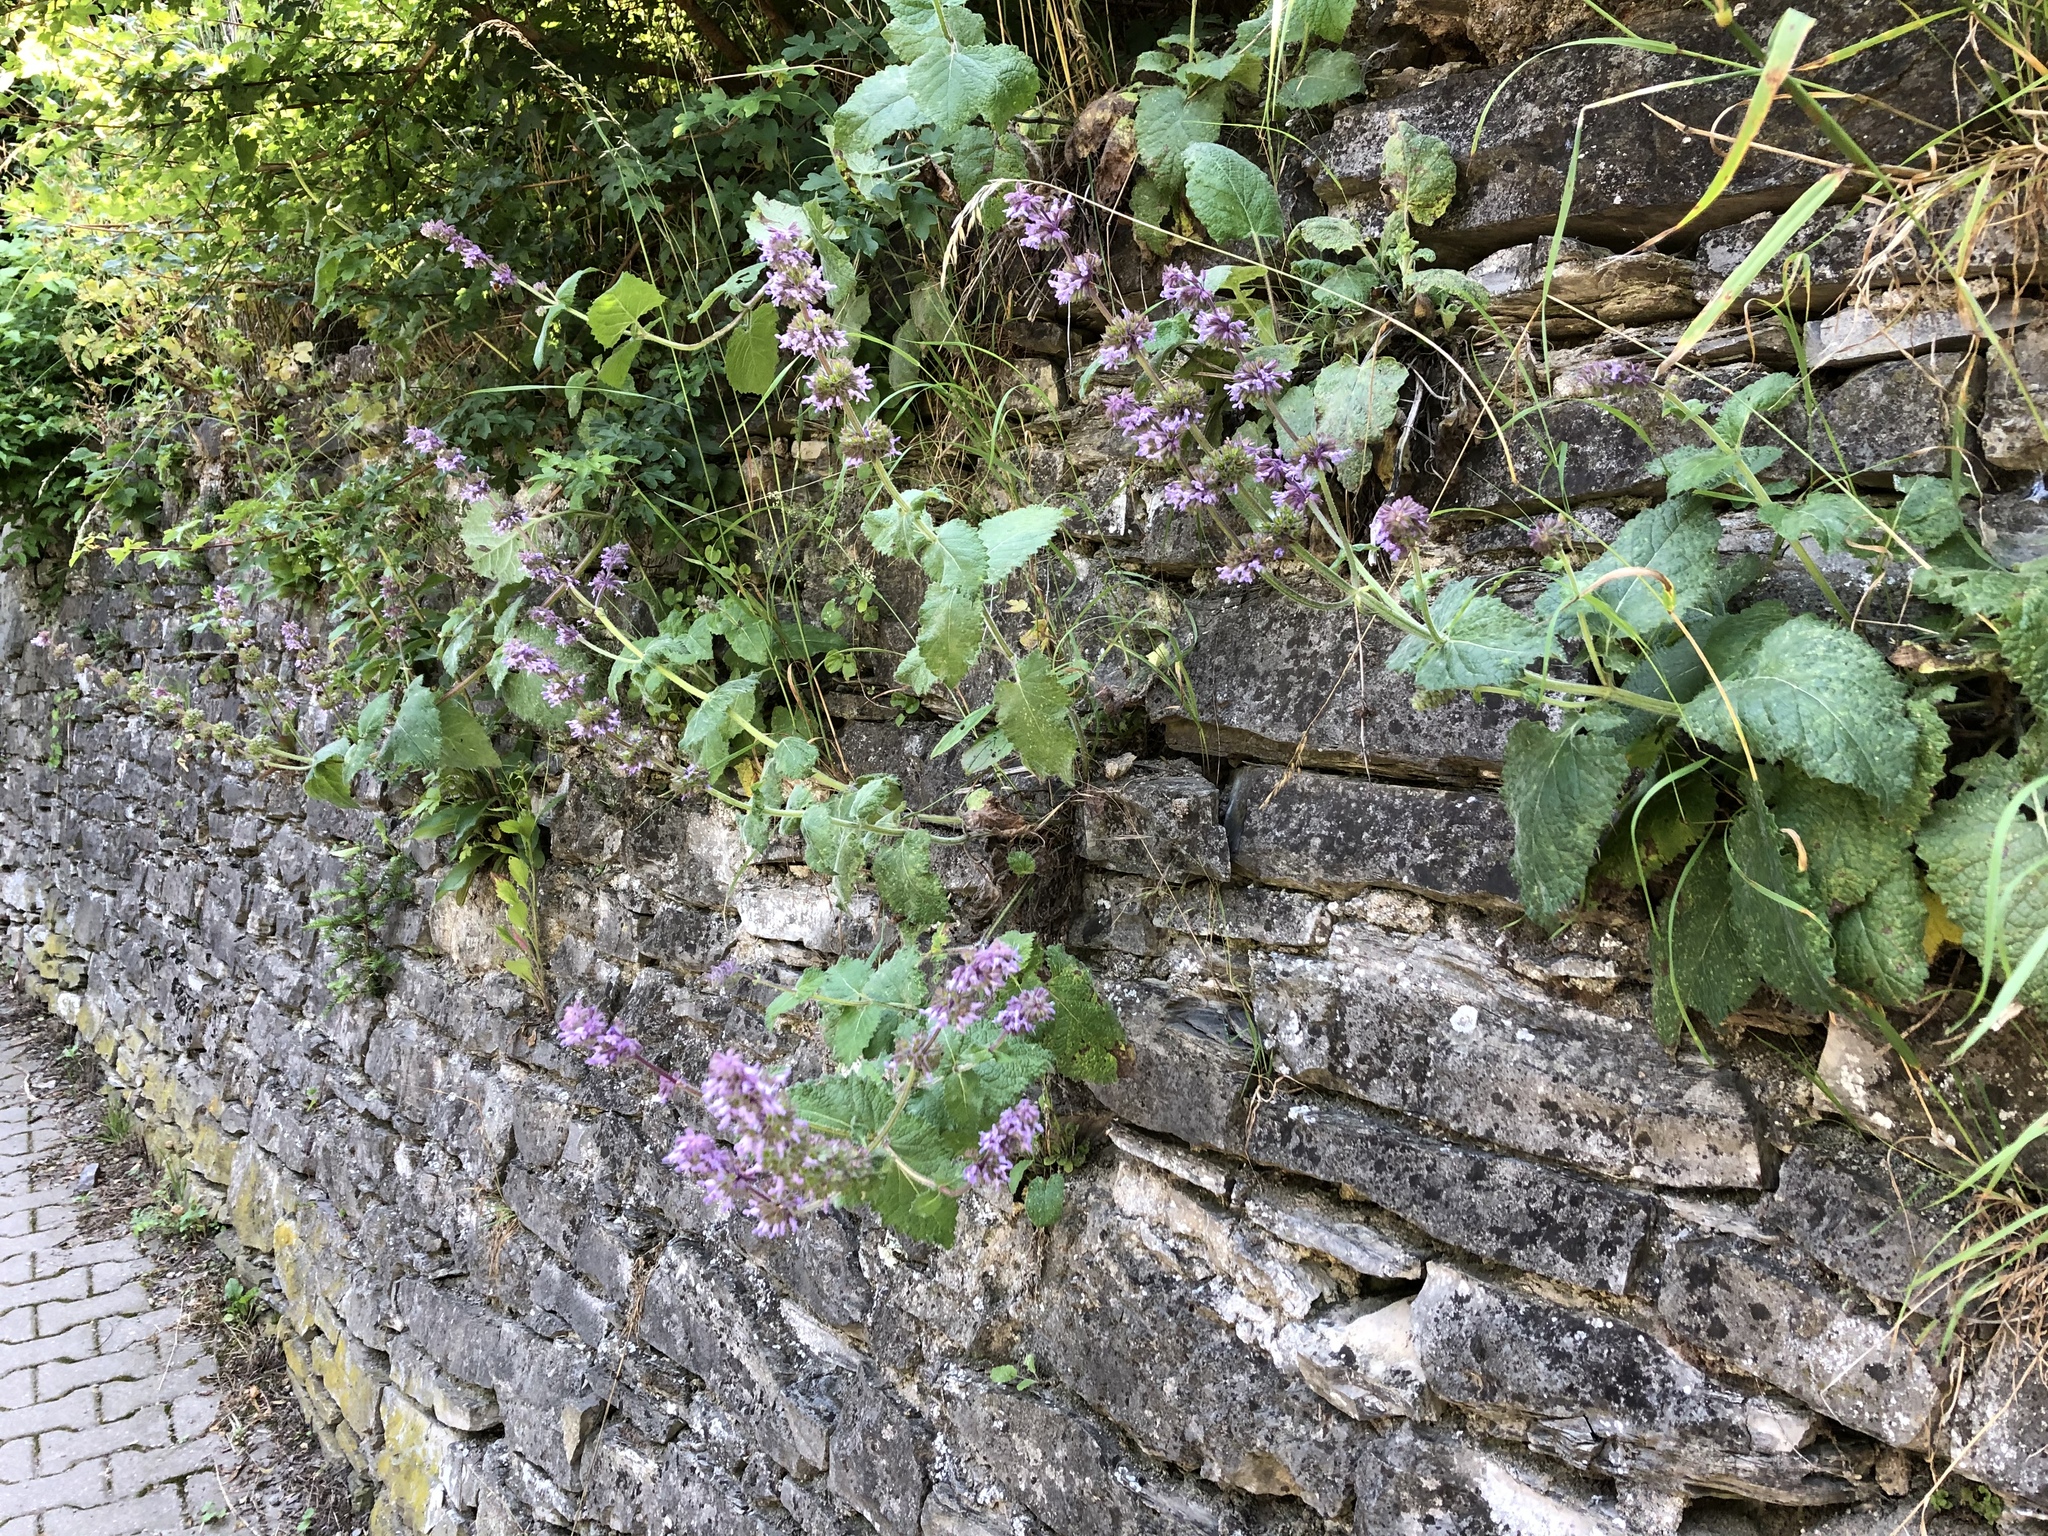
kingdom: Plantae
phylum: Tracheophyta
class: Magnoliopsida
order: Lamiales
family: Lamiaceae
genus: Salvia
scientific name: Salvia verticillata
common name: Whorled clary
